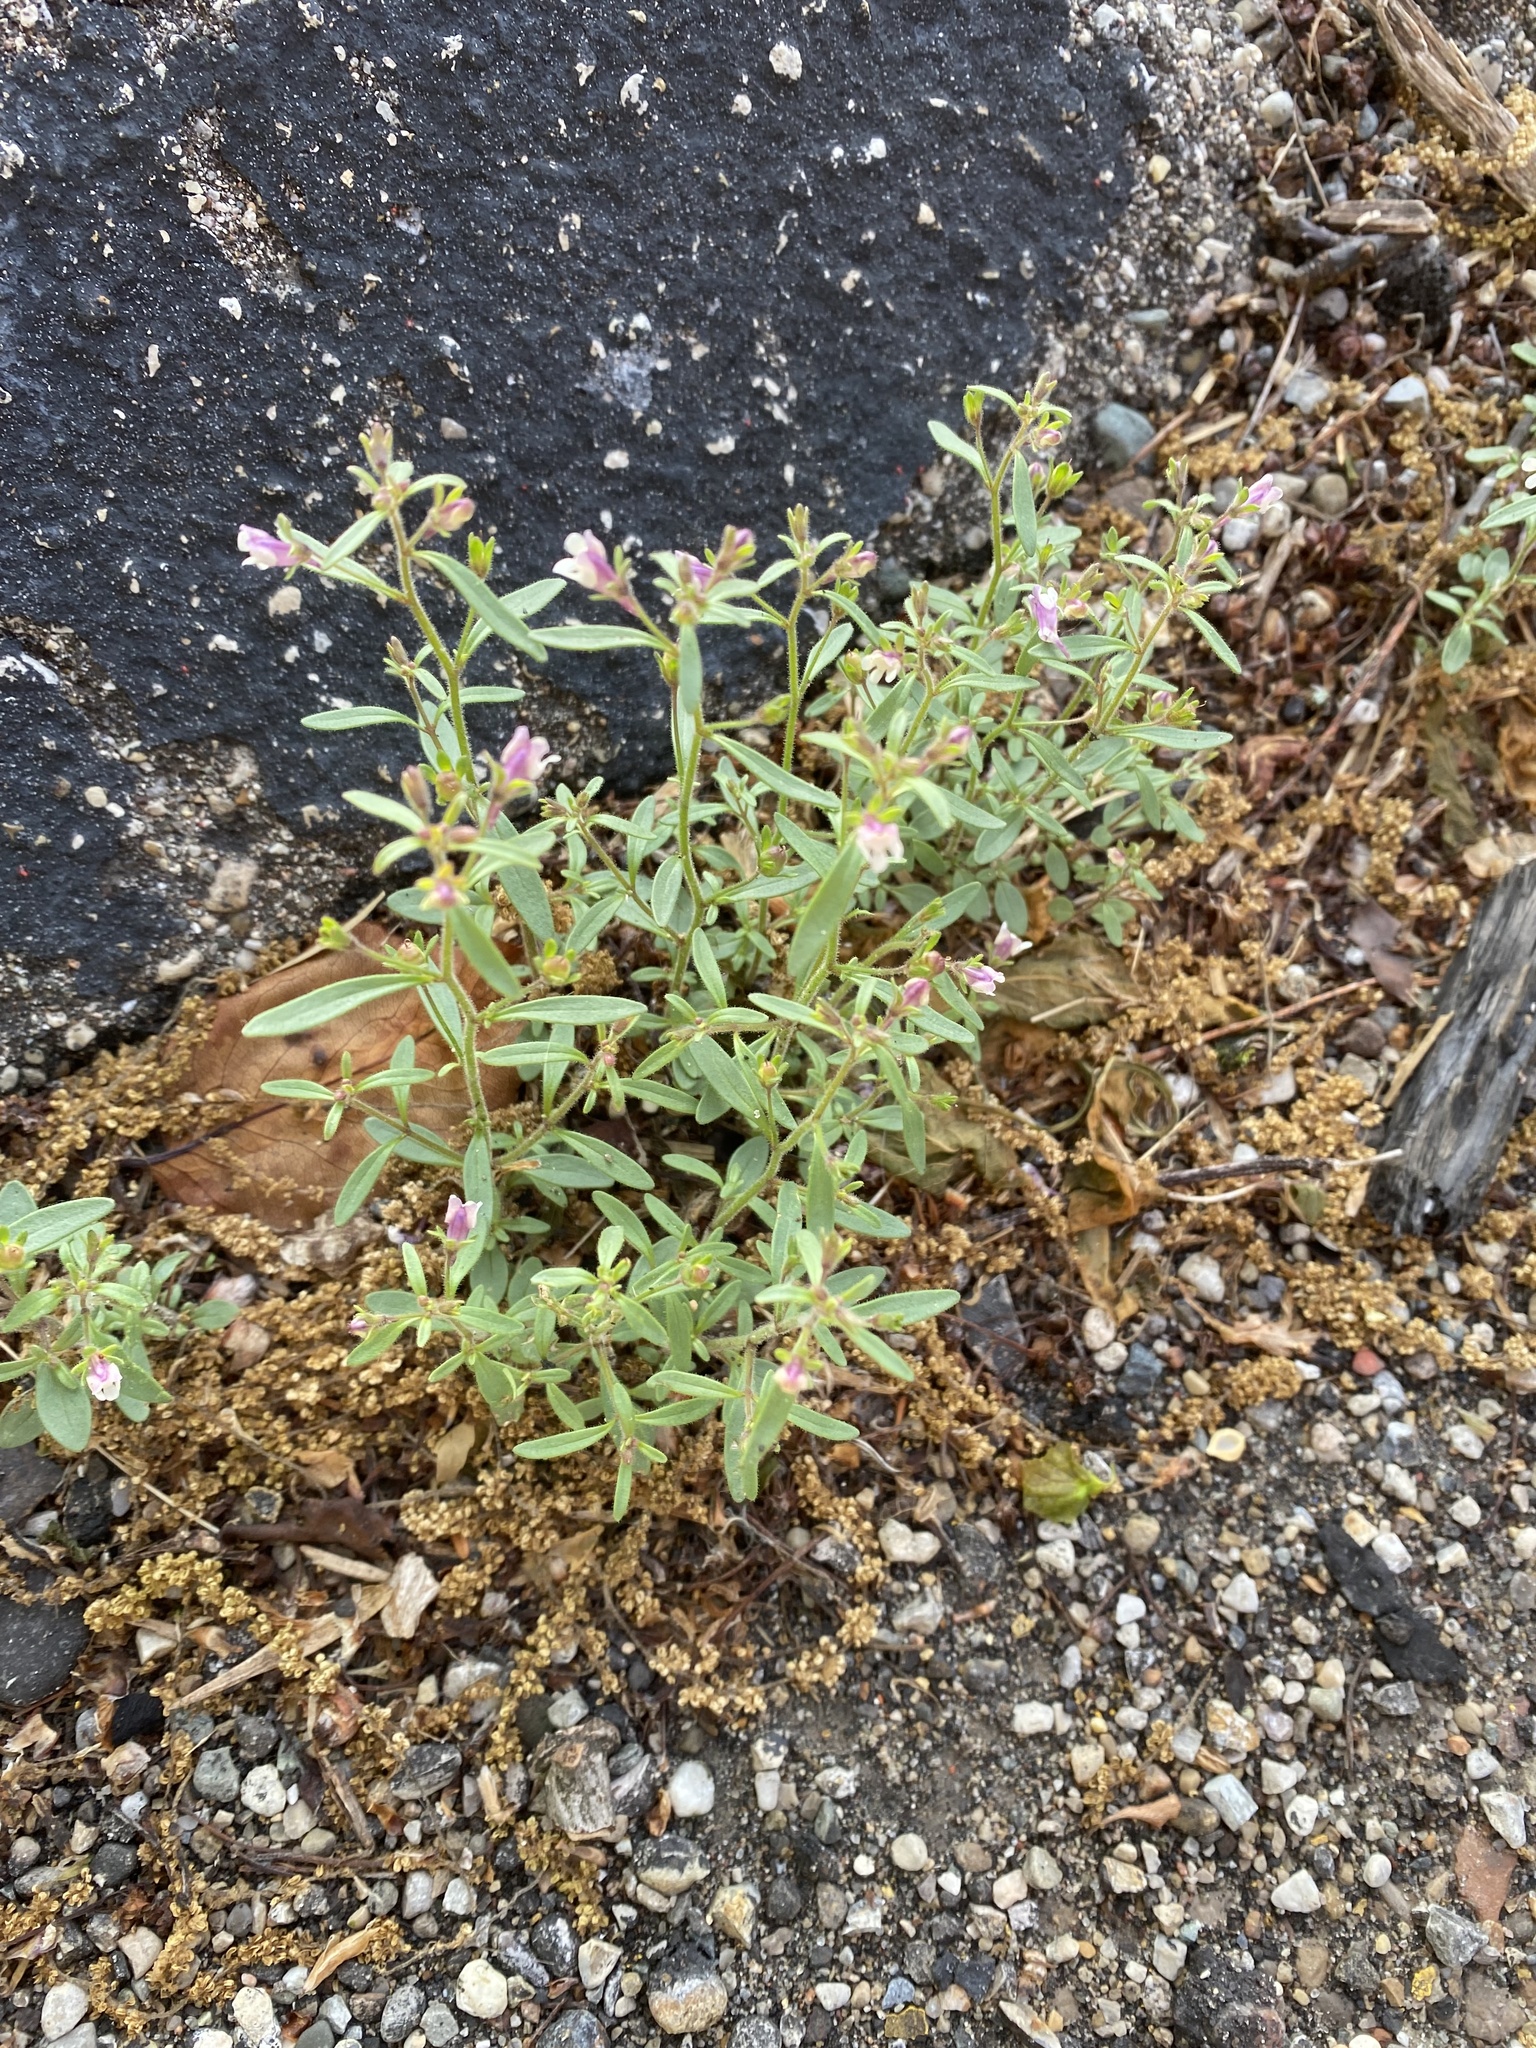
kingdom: Plantae
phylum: Tracheophyta
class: Magnoliopsida
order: Lamiales
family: Plantaginaceae
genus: Chaenorhinum
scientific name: Chaenorhinum minus
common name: Dwarf snapdragon
